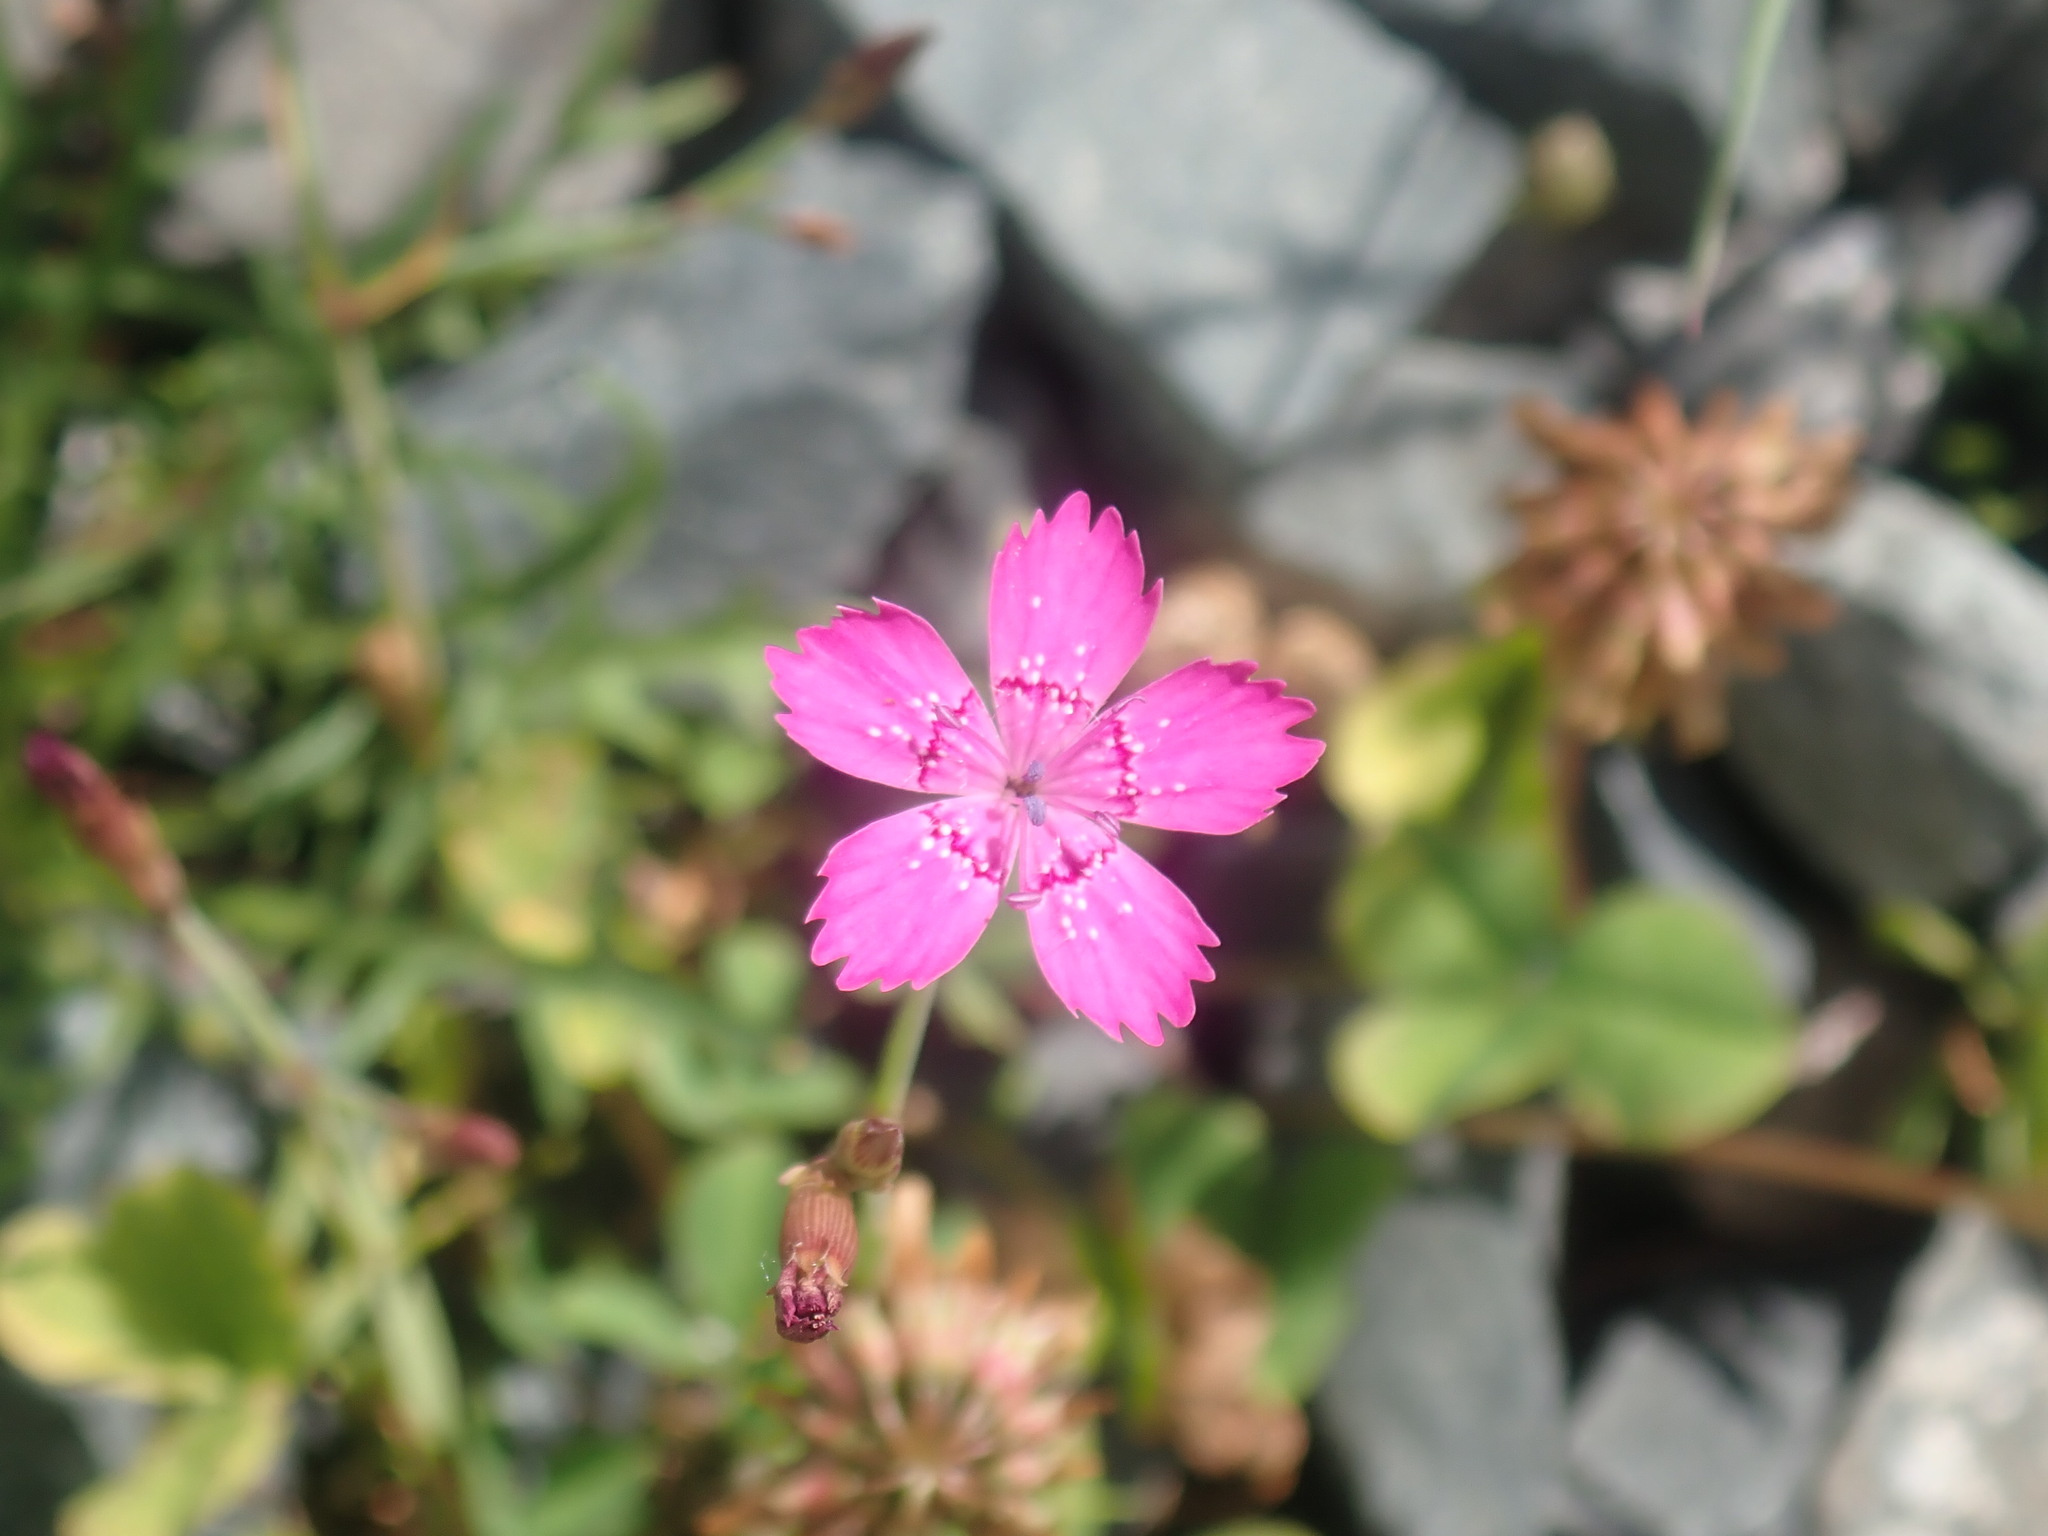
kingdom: Plantae
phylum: Tracheophyta
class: Magnoliopsida
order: Caryophyllales
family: Caryophyllaceae
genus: Dianthus
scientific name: Dianthus deltoides
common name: Maiden pink
